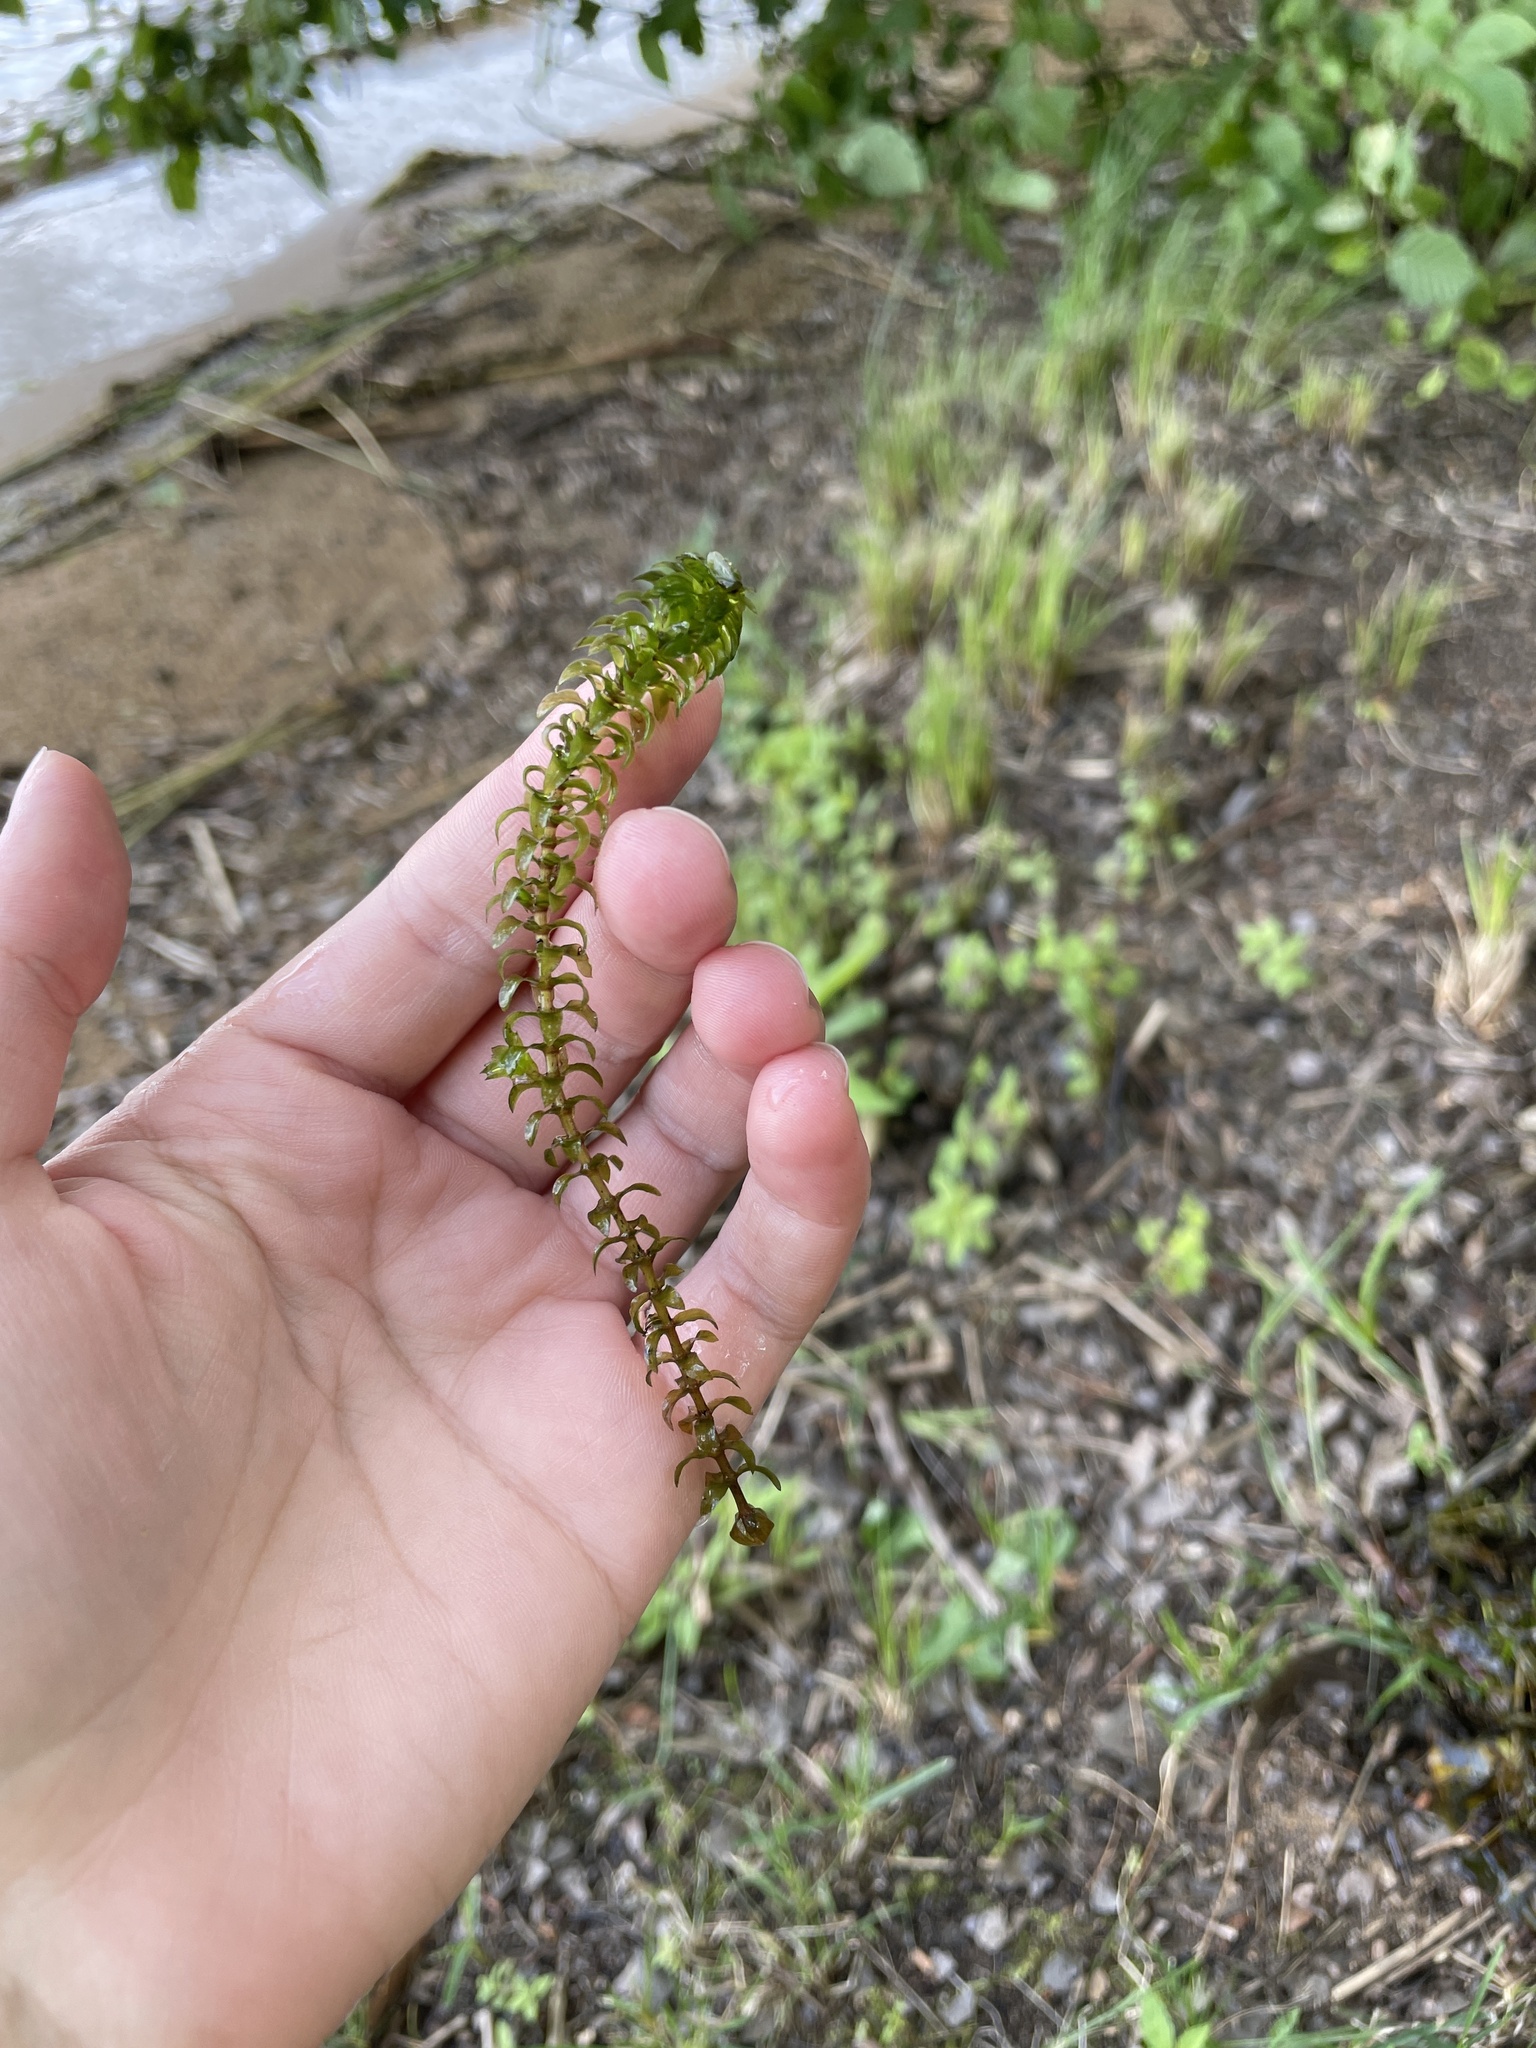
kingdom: Plantae
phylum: Tracheophyta
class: Liliopsida
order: Alismatales
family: Hydrocharitaceae
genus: Elodea
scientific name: Elodea canadensis
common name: Canadian waterweed
